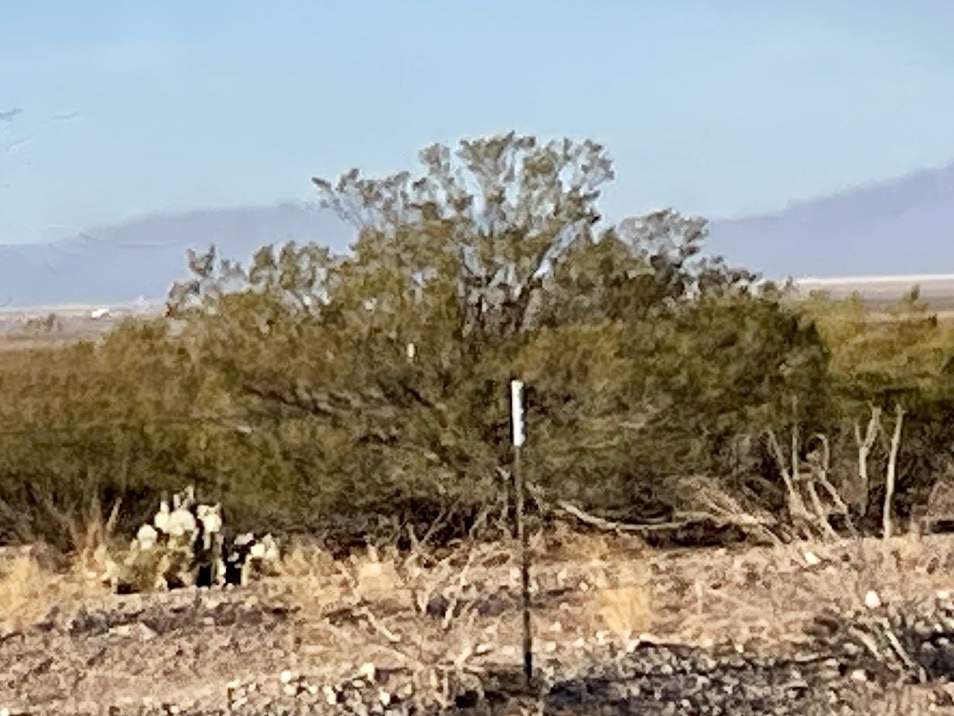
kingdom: Plantae
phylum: Tracheophyta
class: Magnoliopsida
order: Zygophyllales
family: Zygophyllaceae
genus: Larrea
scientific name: Larrea tridentata
